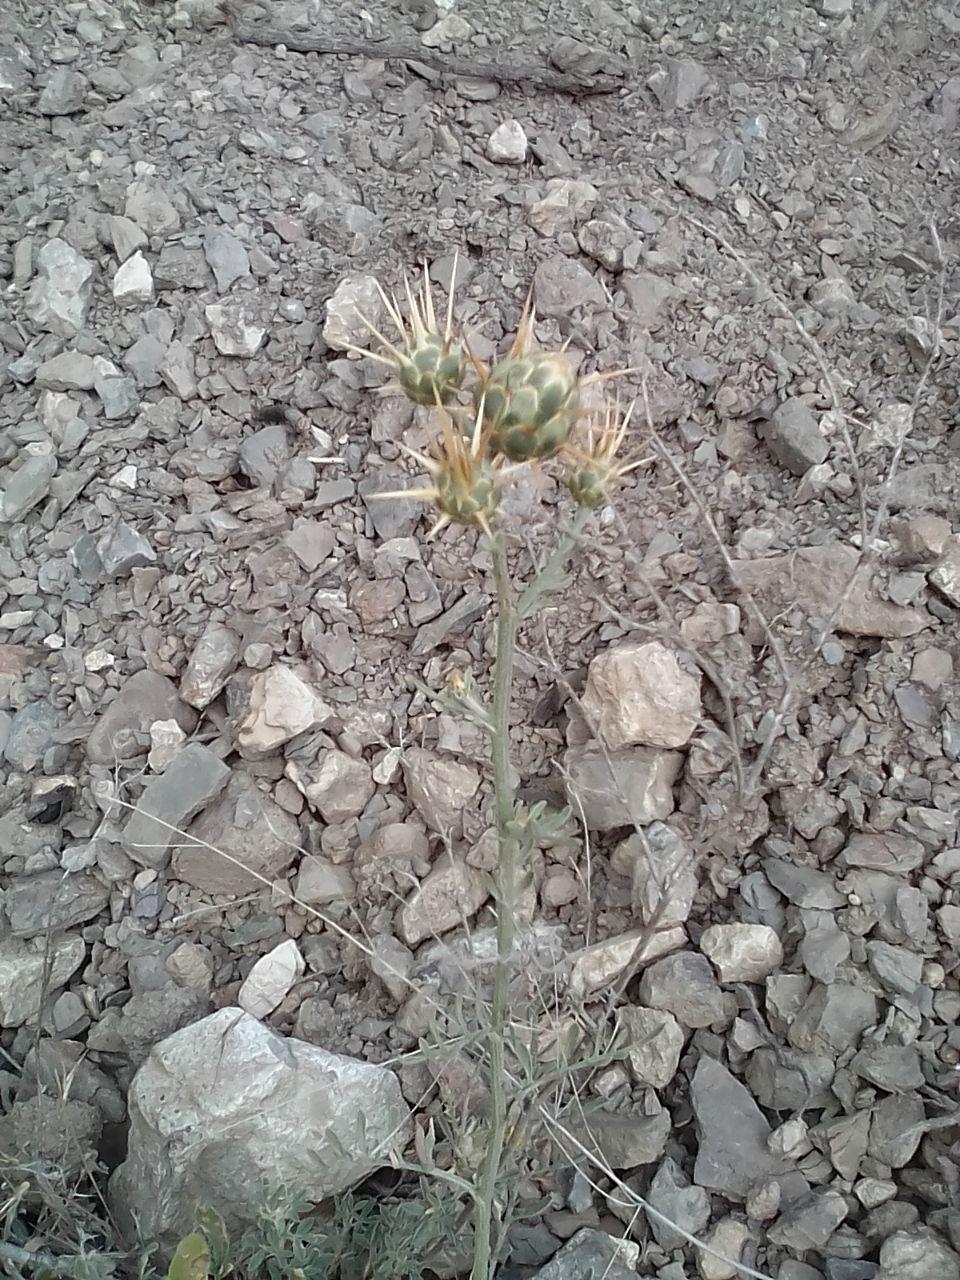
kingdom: Plantae
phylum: Tracheophyta
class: Magnoliopsida
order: Asterales
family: Asteraceae
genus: Centaurea
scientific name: Centaurea salonitana
